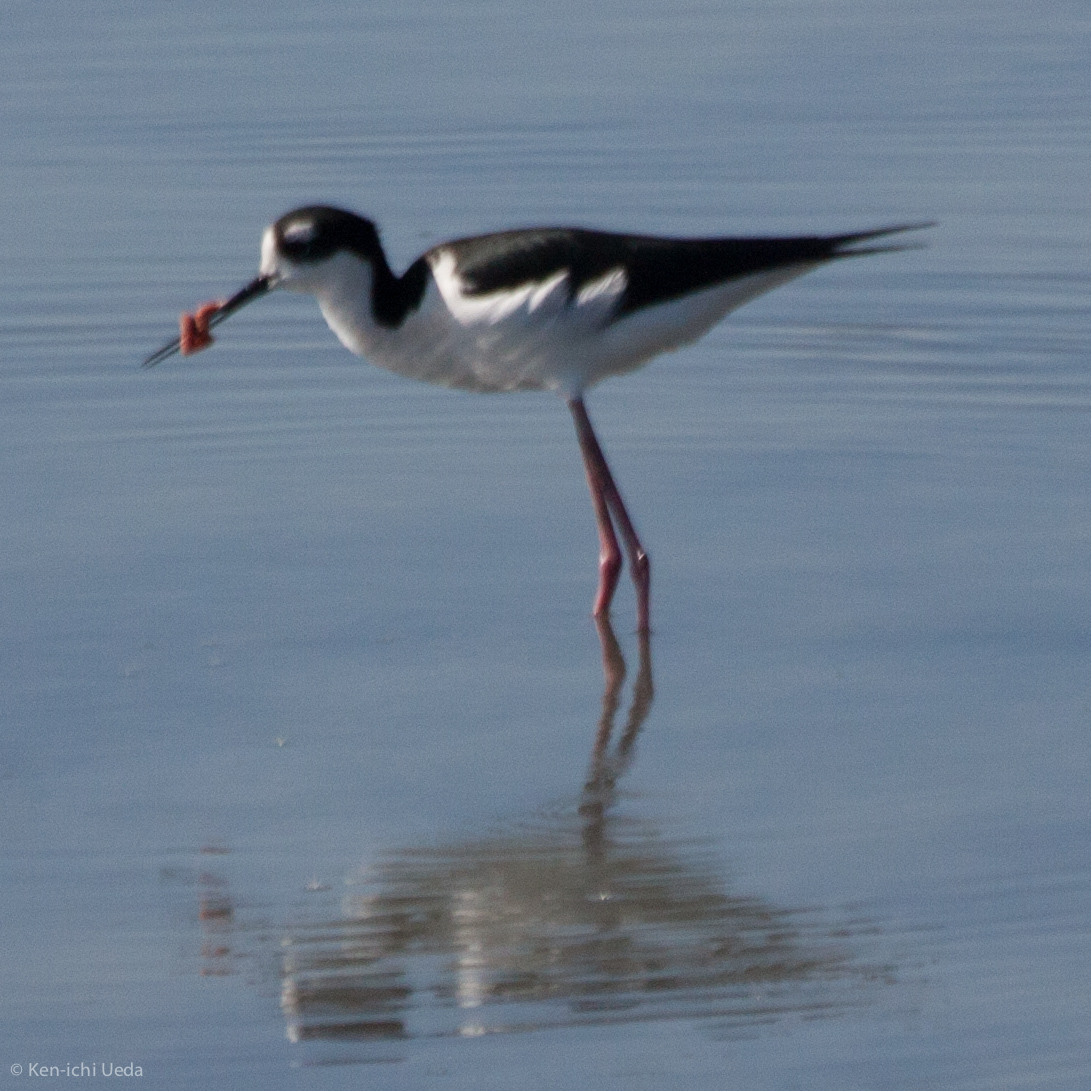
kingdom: Animalia
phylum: Chordata
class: Aves
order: Charadriiformes
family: Recurvirostridae
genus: Himantopus
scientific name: Himantopus mexicanus
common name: Black-necked stilt
